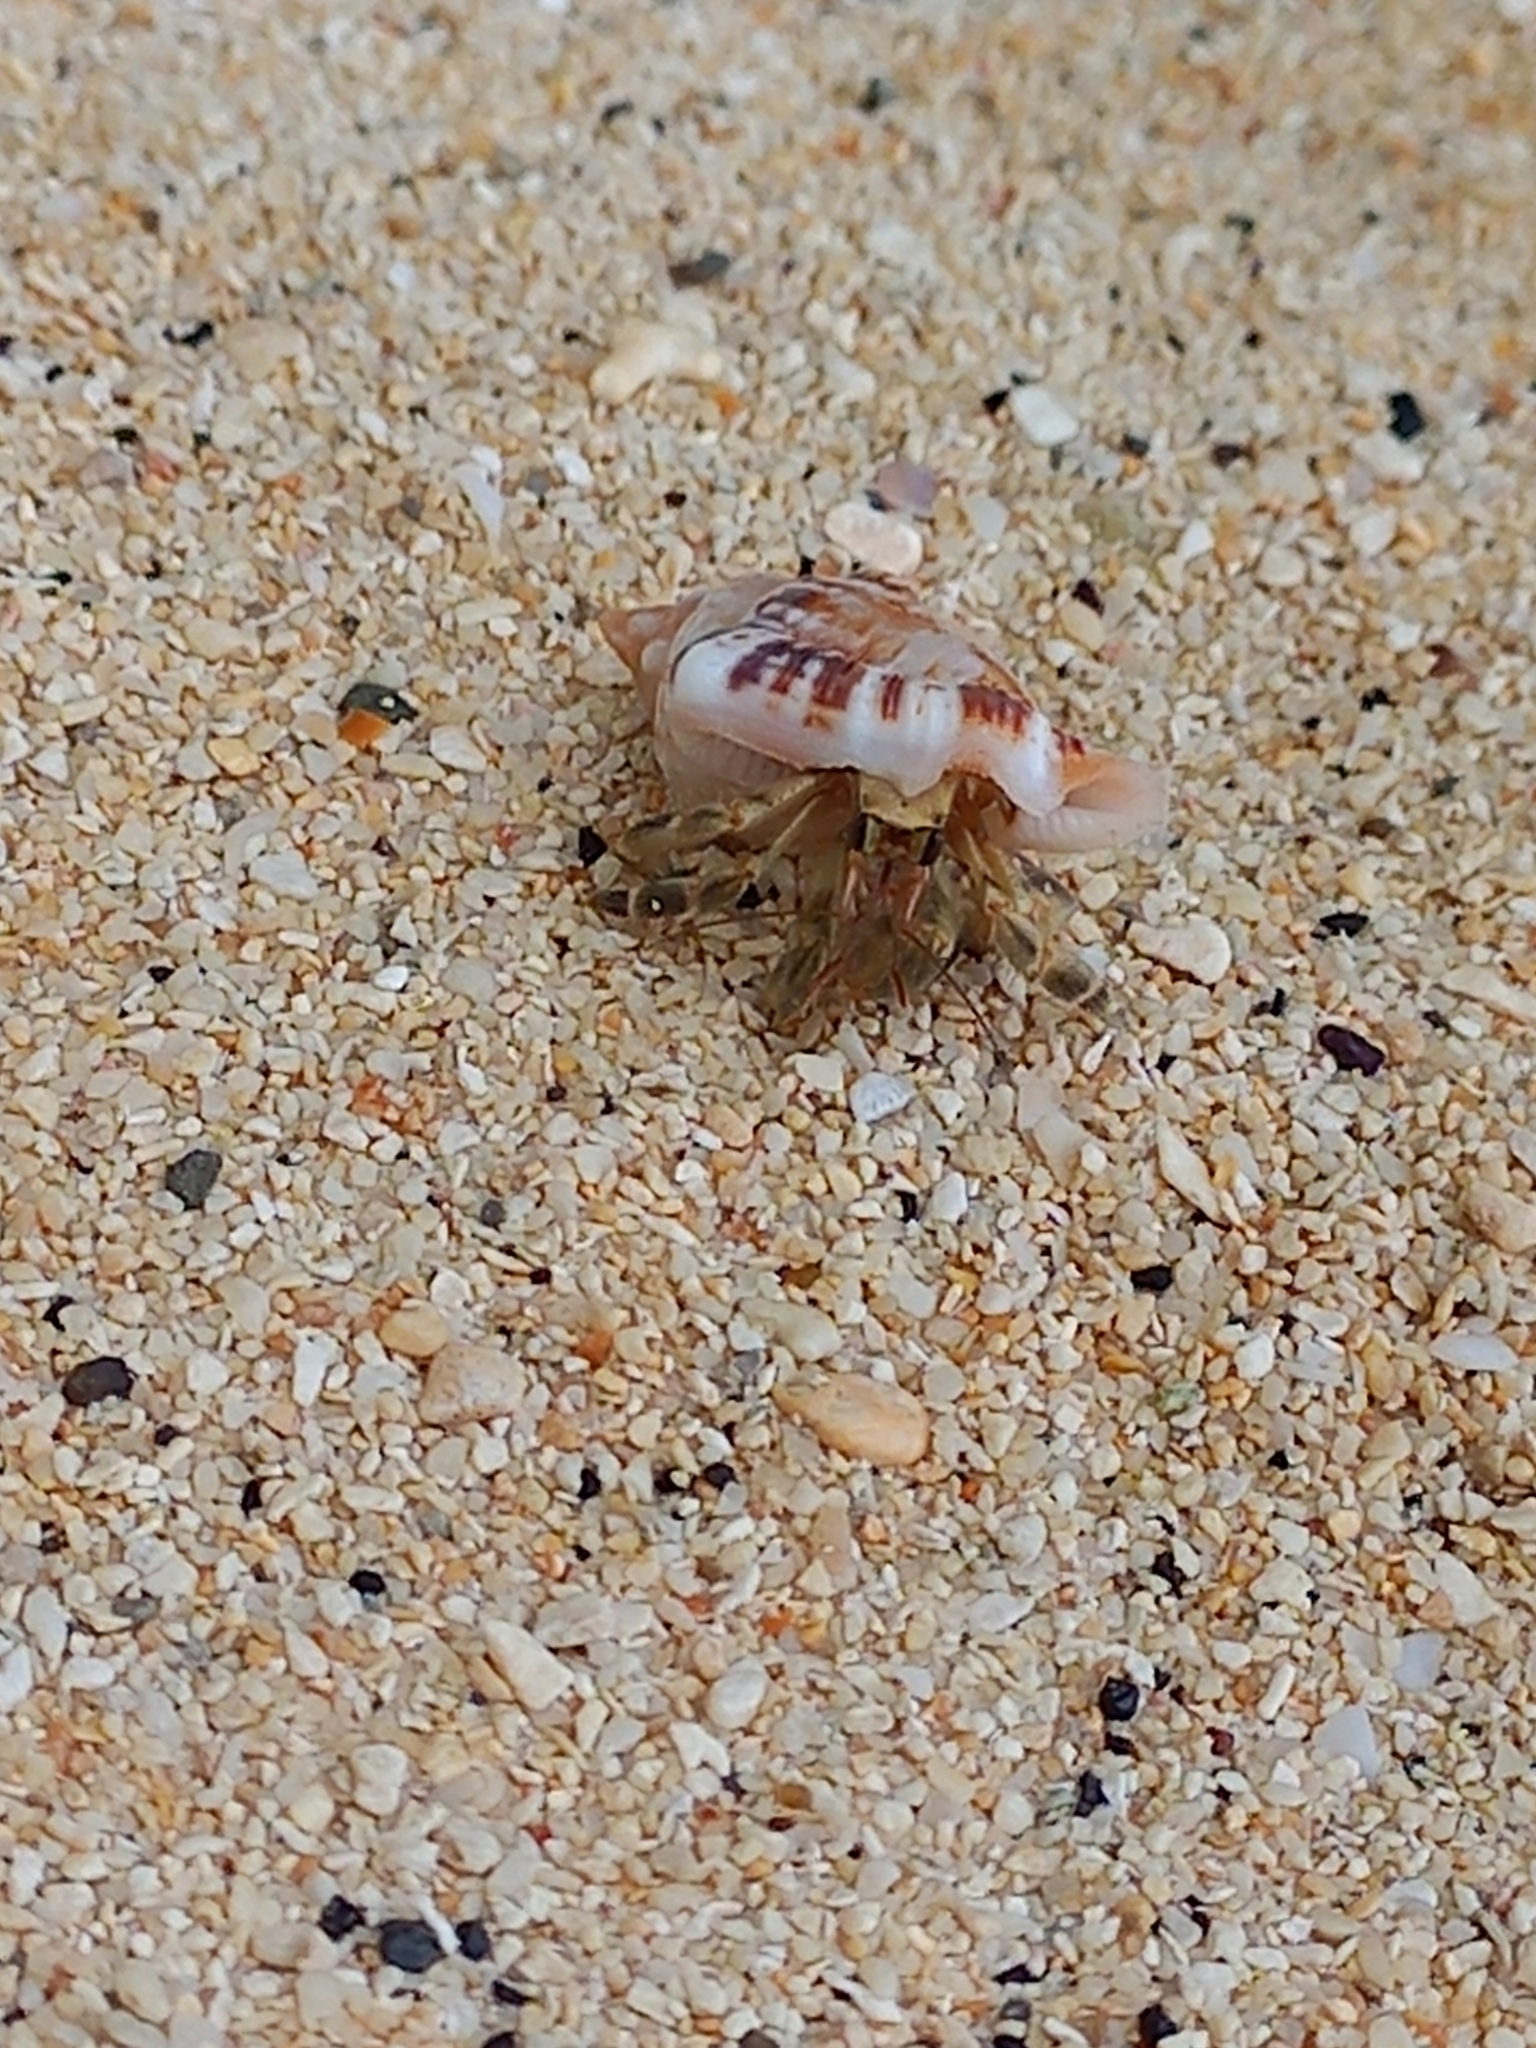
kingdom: Animalia
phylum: Arthropoda
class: Malacostraca
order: Decapoda
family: Coenobitidae
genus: Coenobita
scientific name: Coenobita rugosus
